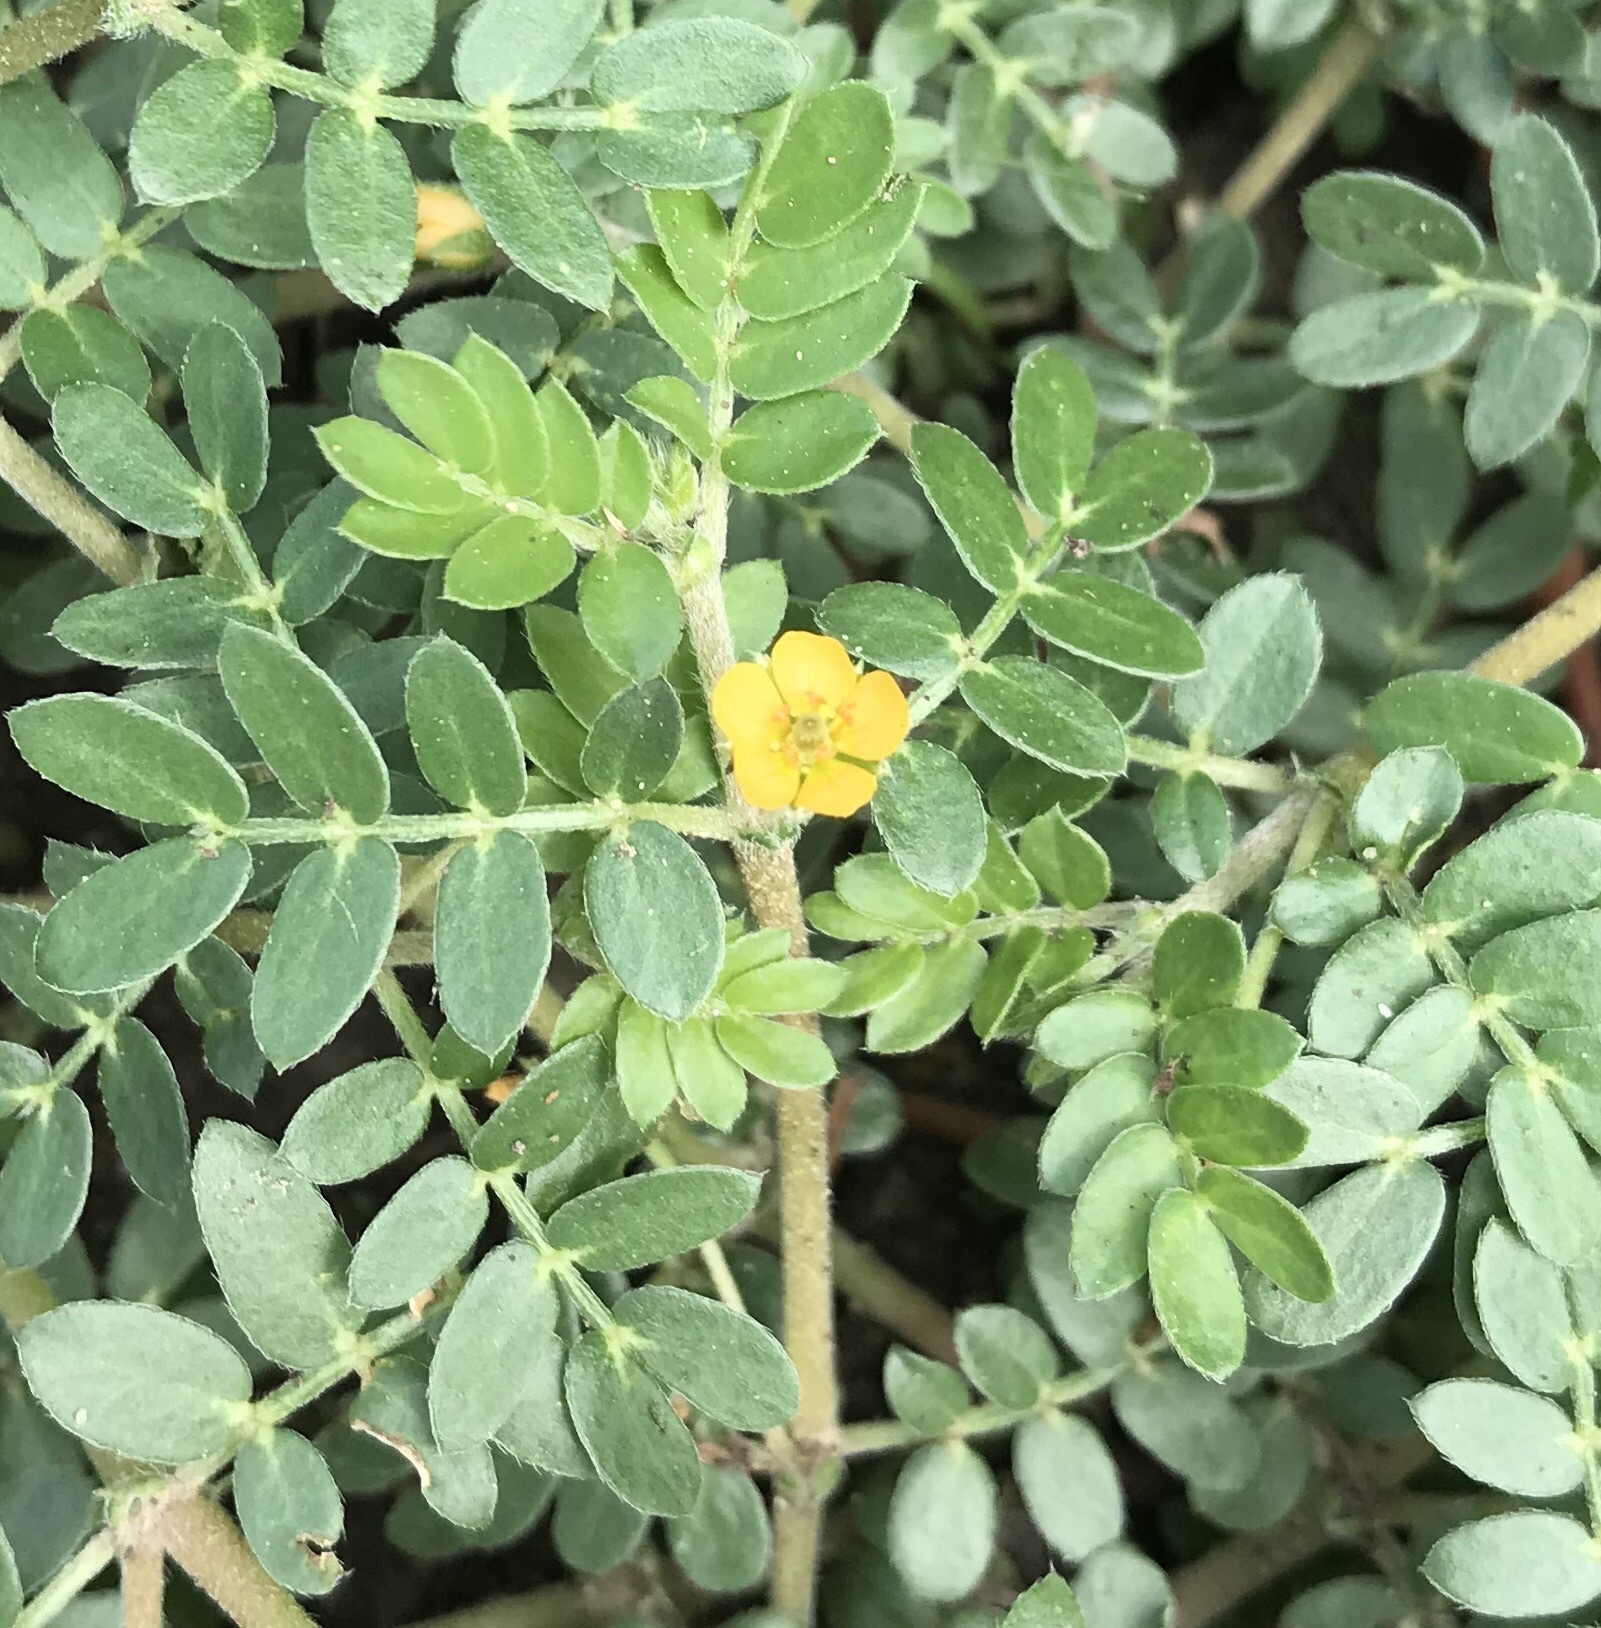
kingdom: Plantae
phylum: Tracheophyta
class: Magnoliopsida
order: Zygophyllales
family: Zygophyllaceae
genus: Tribulus
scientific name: Tribulus terrestris
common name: Puncturevine
